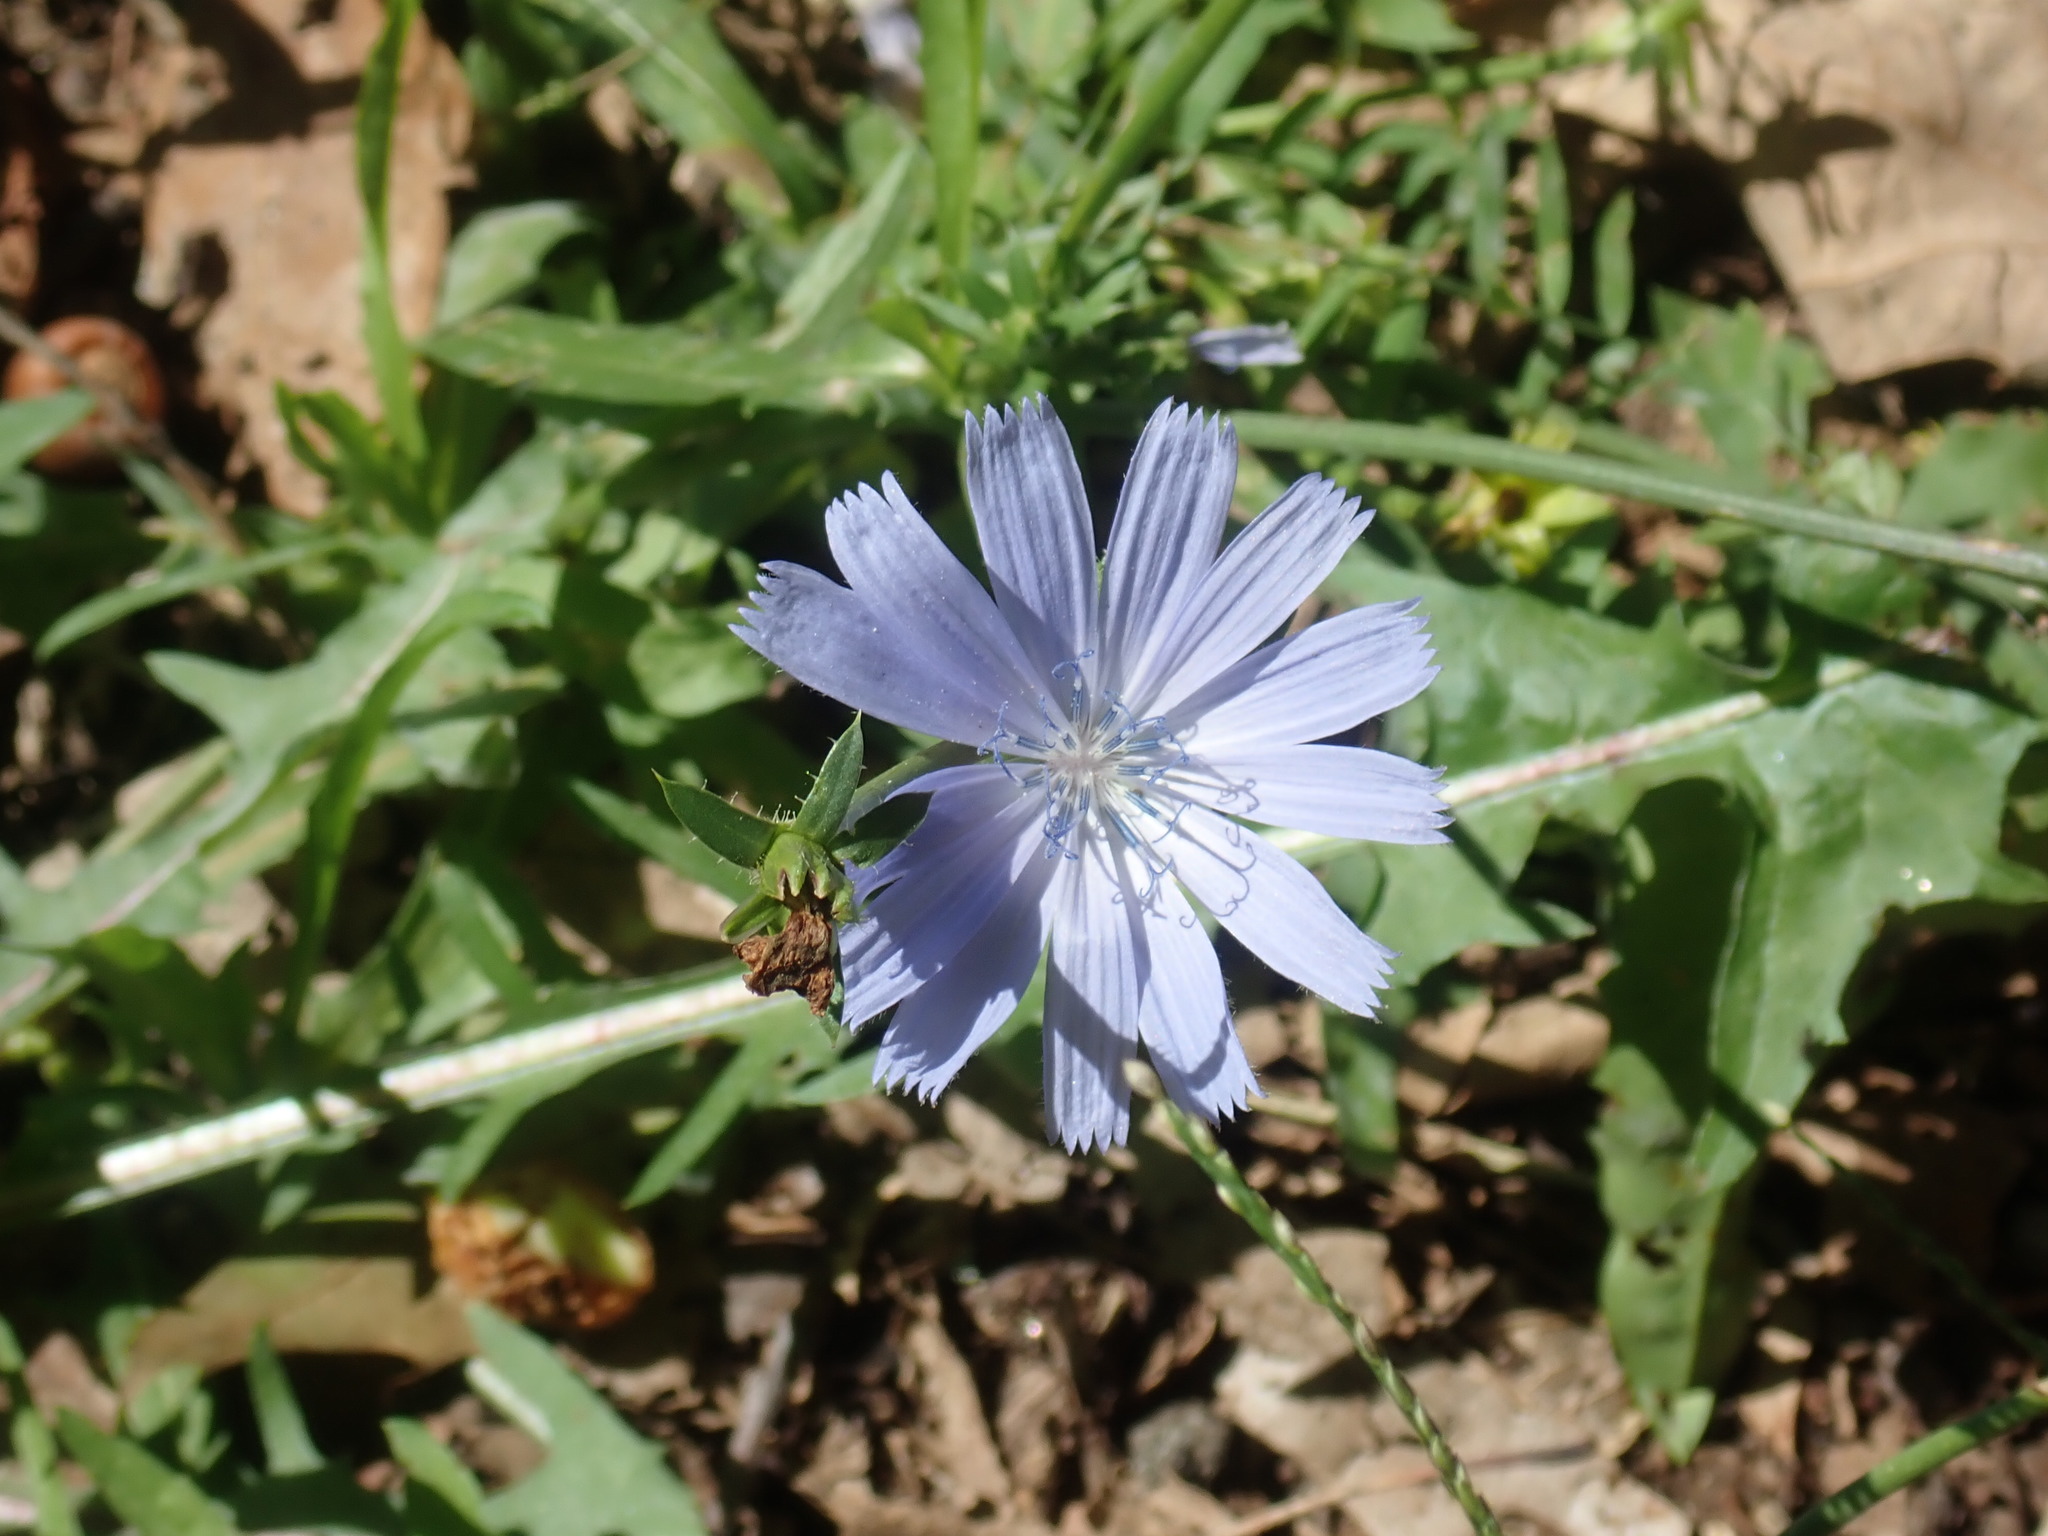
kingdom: Plantae
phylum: Tracheophyta
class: Magnoliopsida
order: Asterales
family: Asteraceae
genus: Cichorium
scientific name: Cichorium intybus
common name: Chicory
